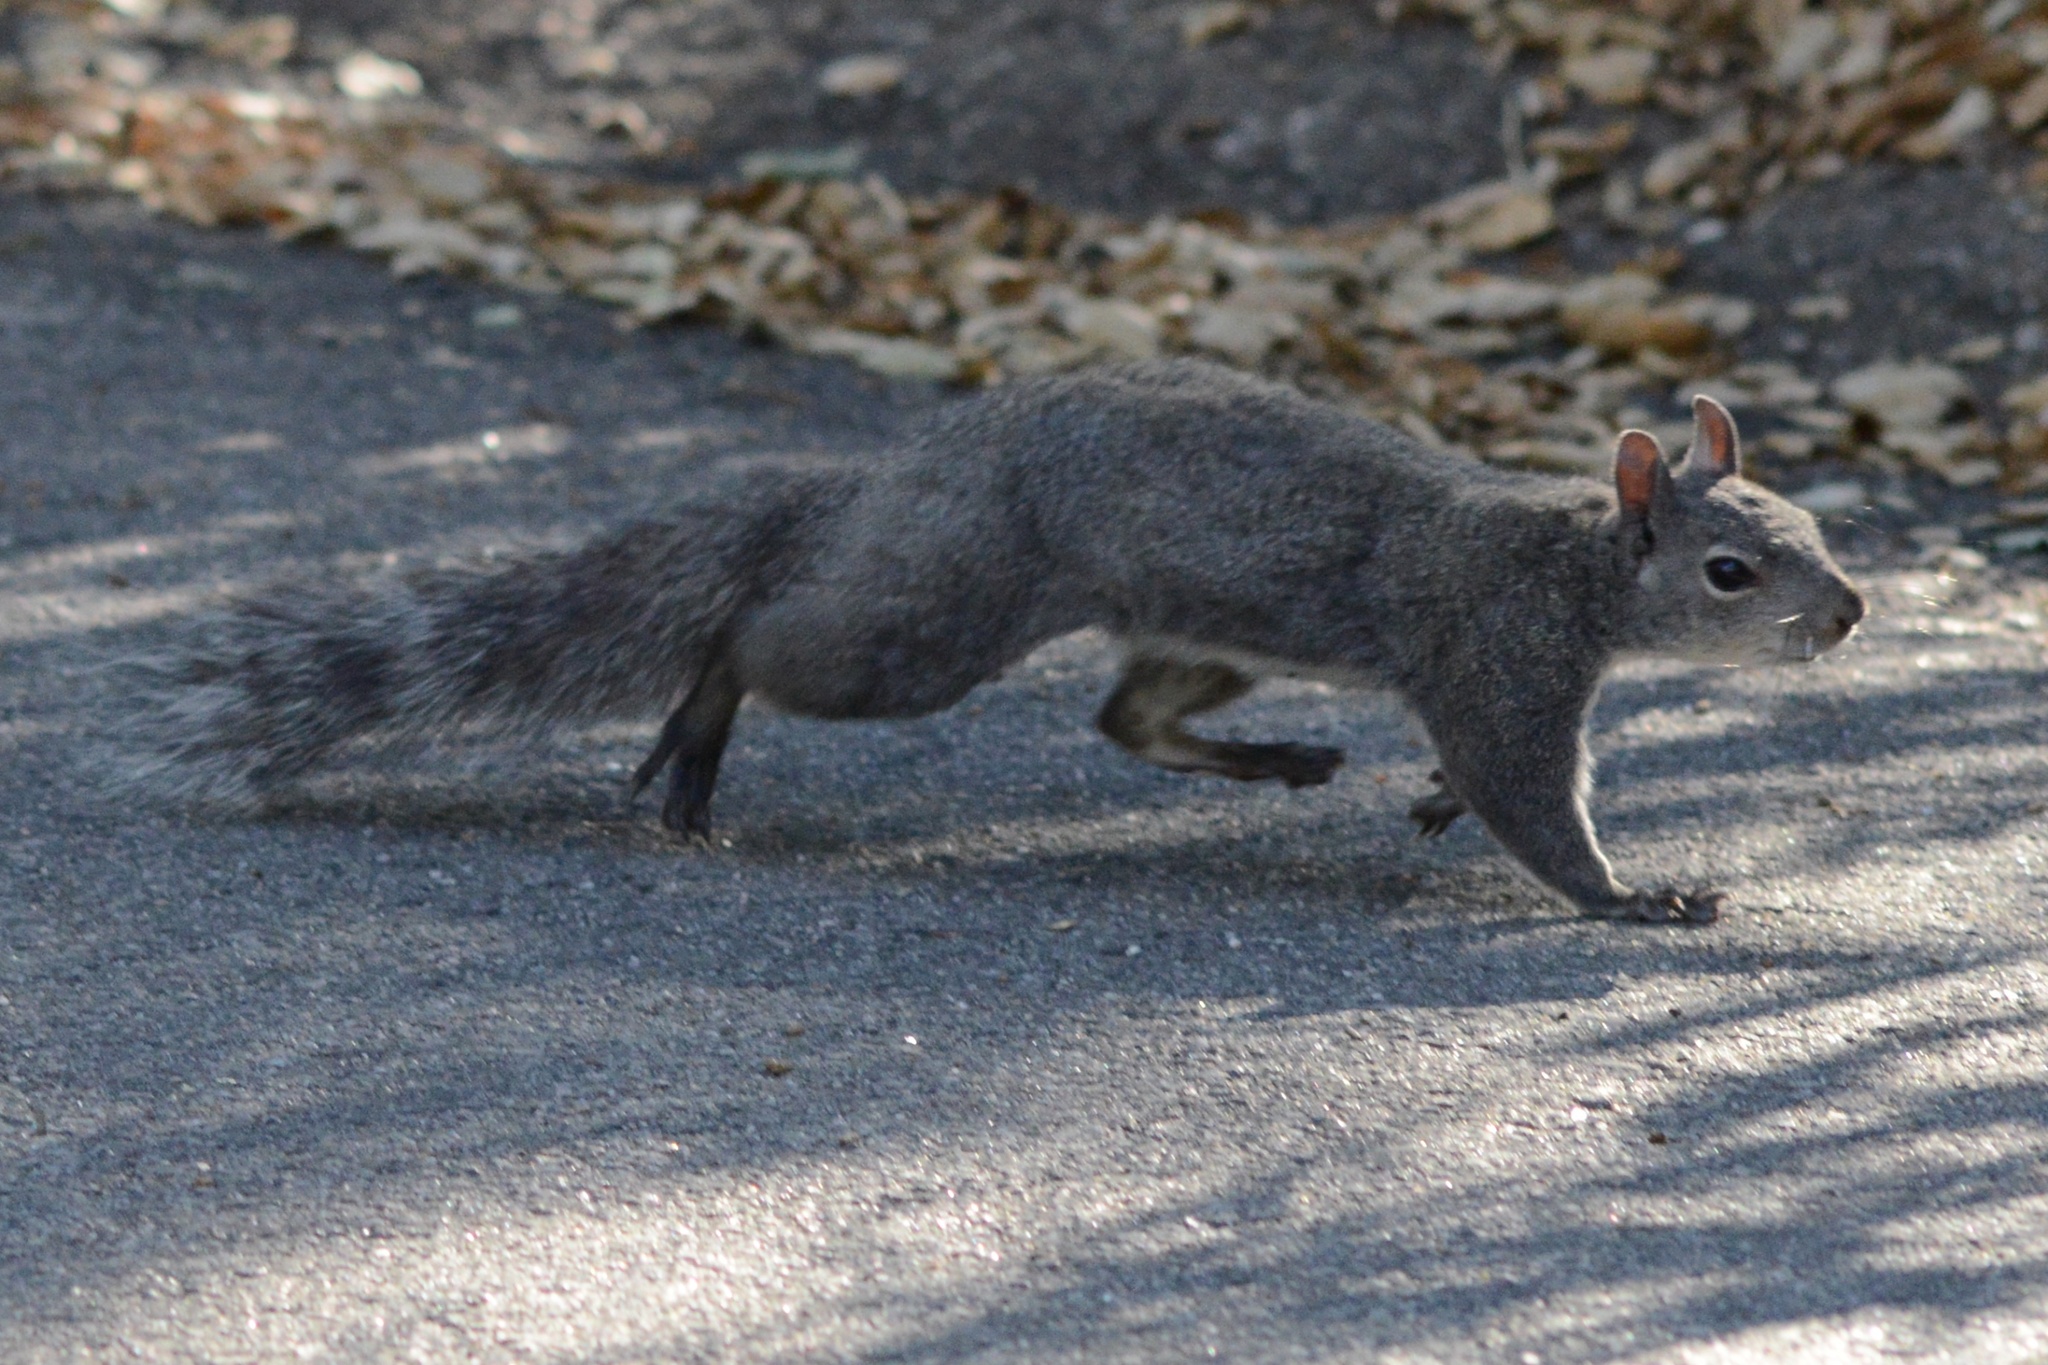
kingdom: Animalia
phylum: Chordata
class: Mammalia
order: Rodentia
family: Sciuridae
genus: Sciurus
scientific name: Sciurus griseus
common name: Western gray squirrel
